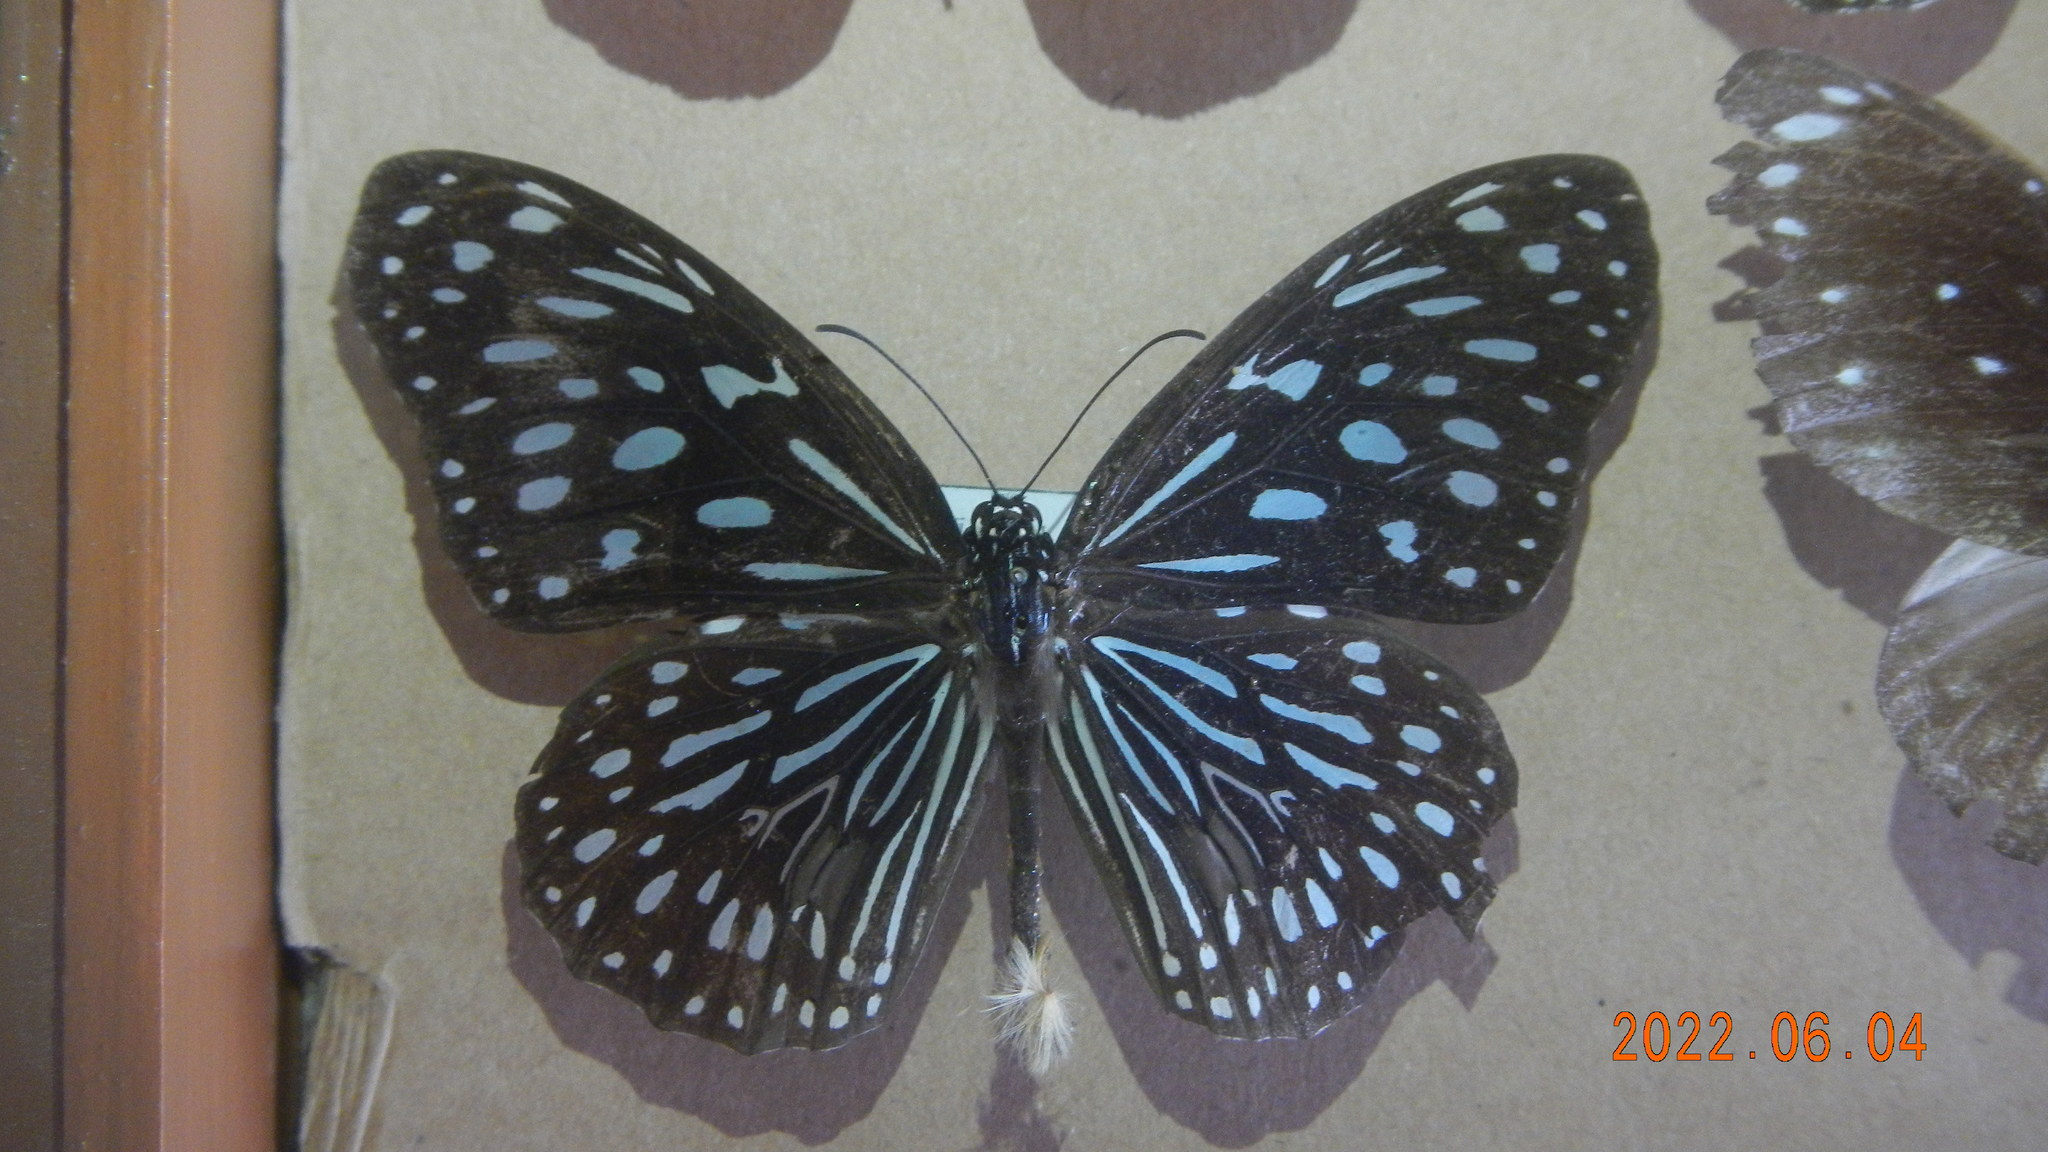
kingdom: Animalia
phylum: Arthropoda
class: Insecta
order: Lepidoptera
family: Nymphalidae
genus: Tirumala
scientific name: Tirumala septentrionis
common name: Dark blue tiger butterfly
